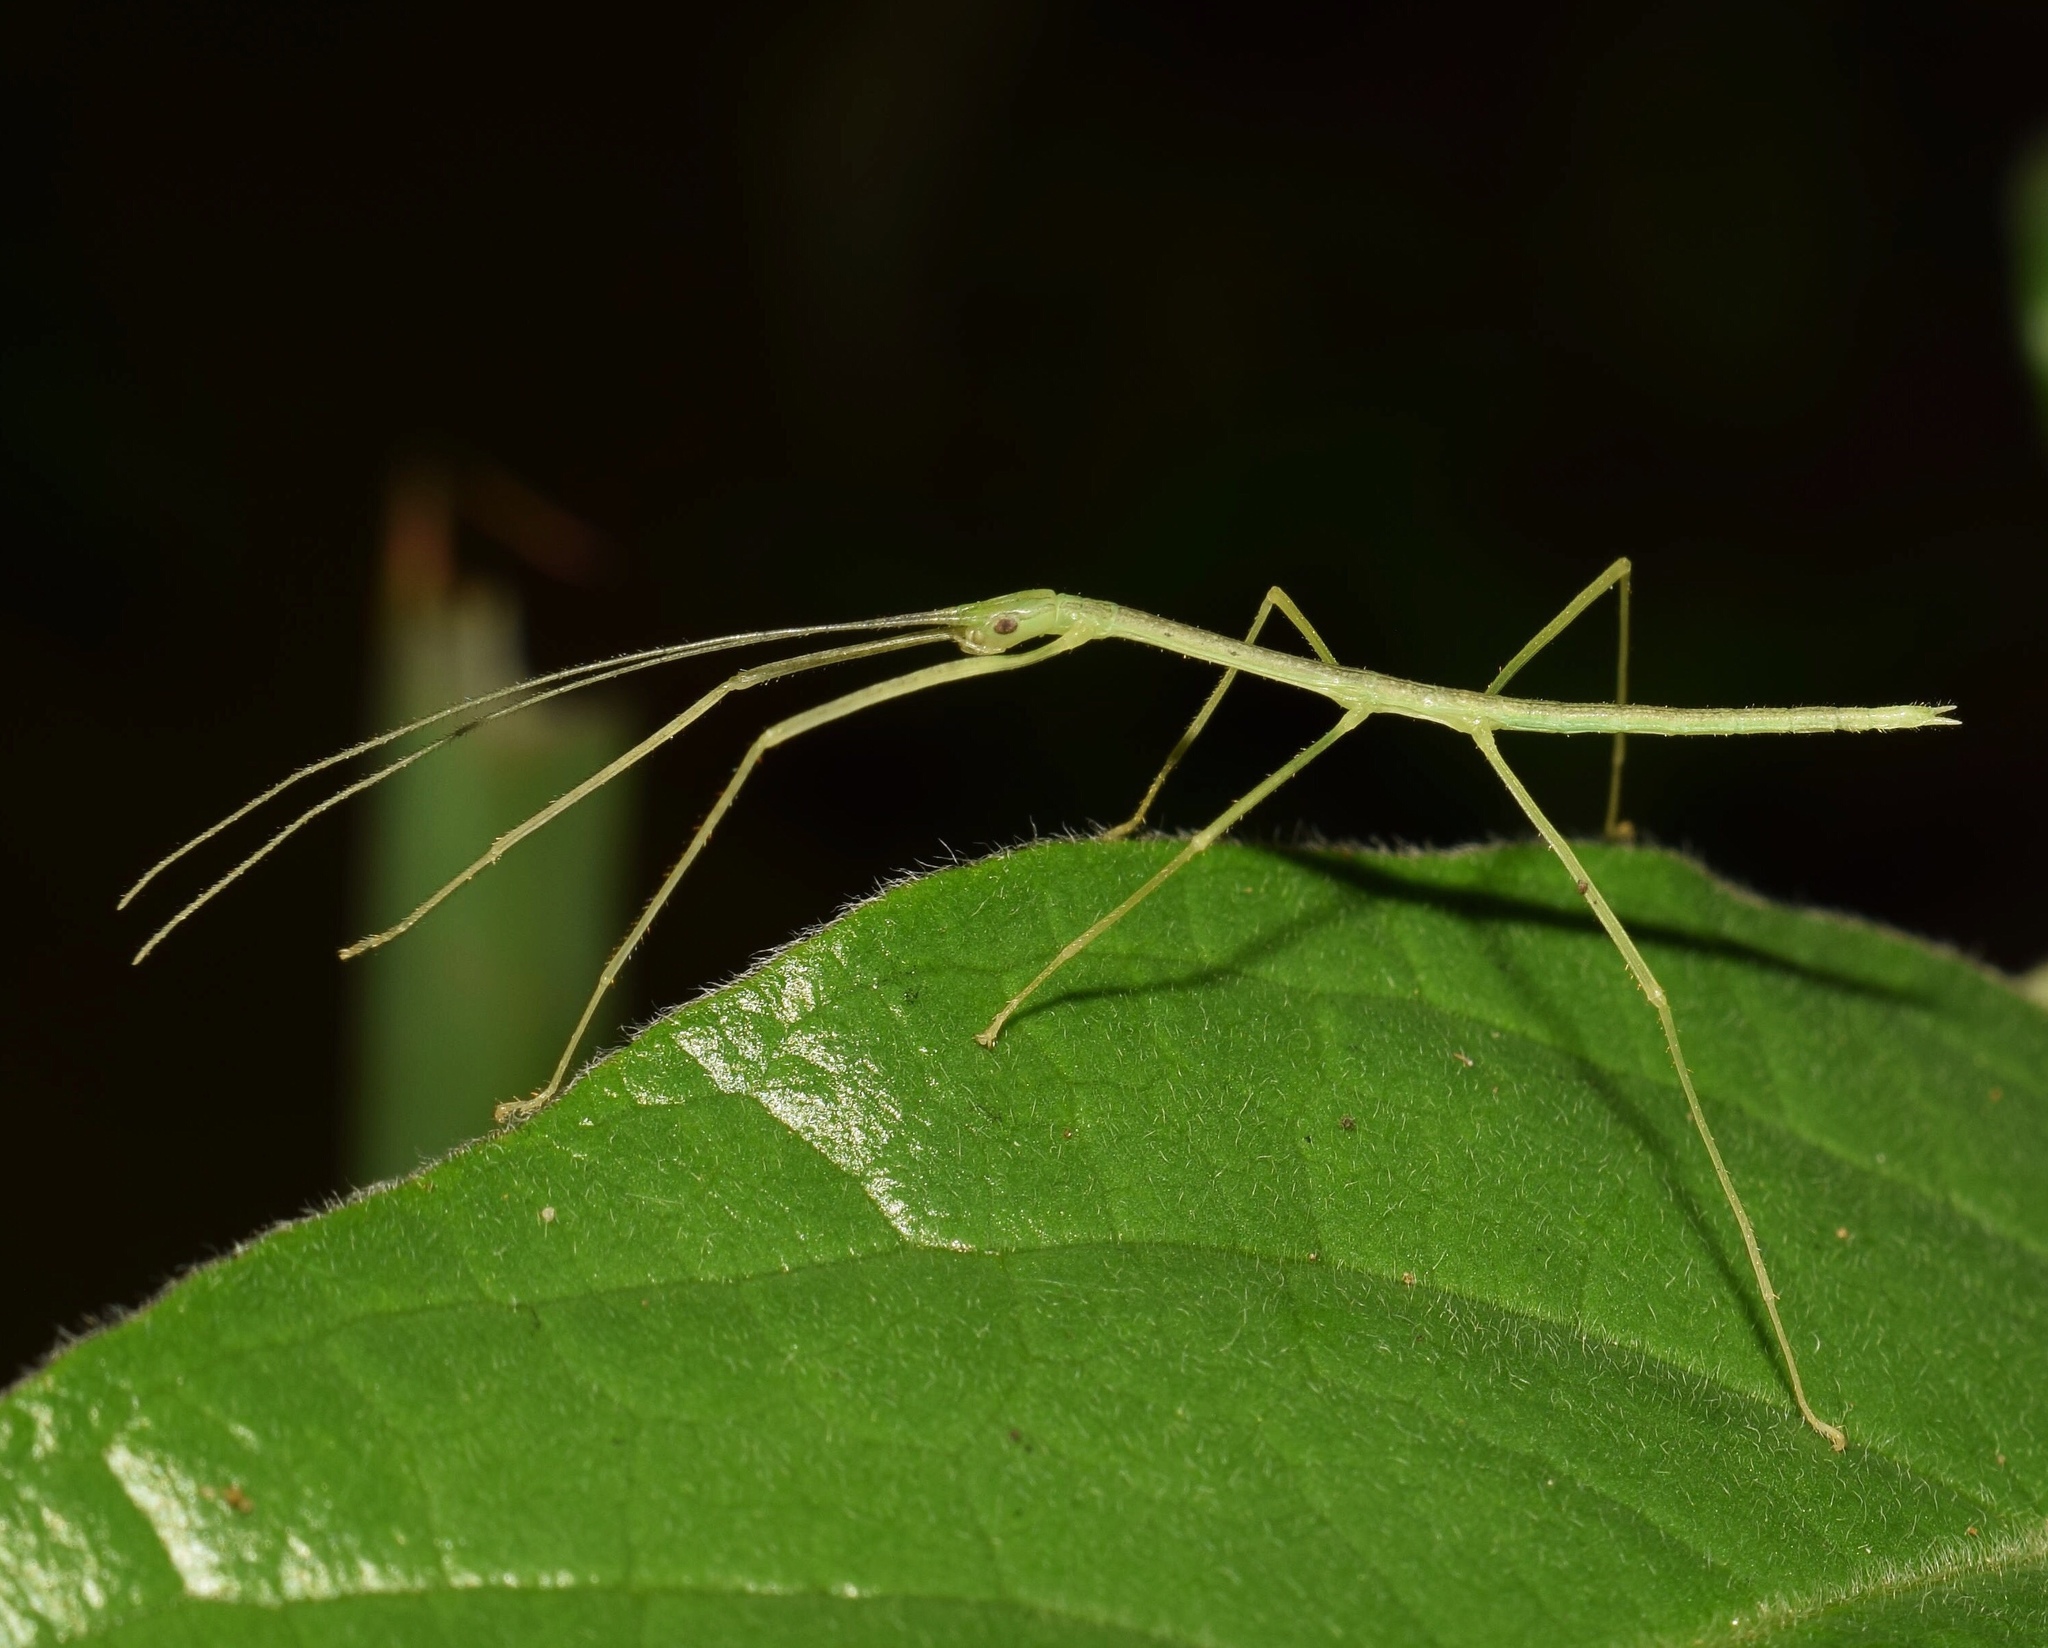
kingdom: Animalia
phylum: Arthropoda
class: Insecta
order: Phasmida
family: Lonchodidae
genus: Sipyloidea
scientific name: Sipyloidea sipylus
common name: Madagascan stick insect
